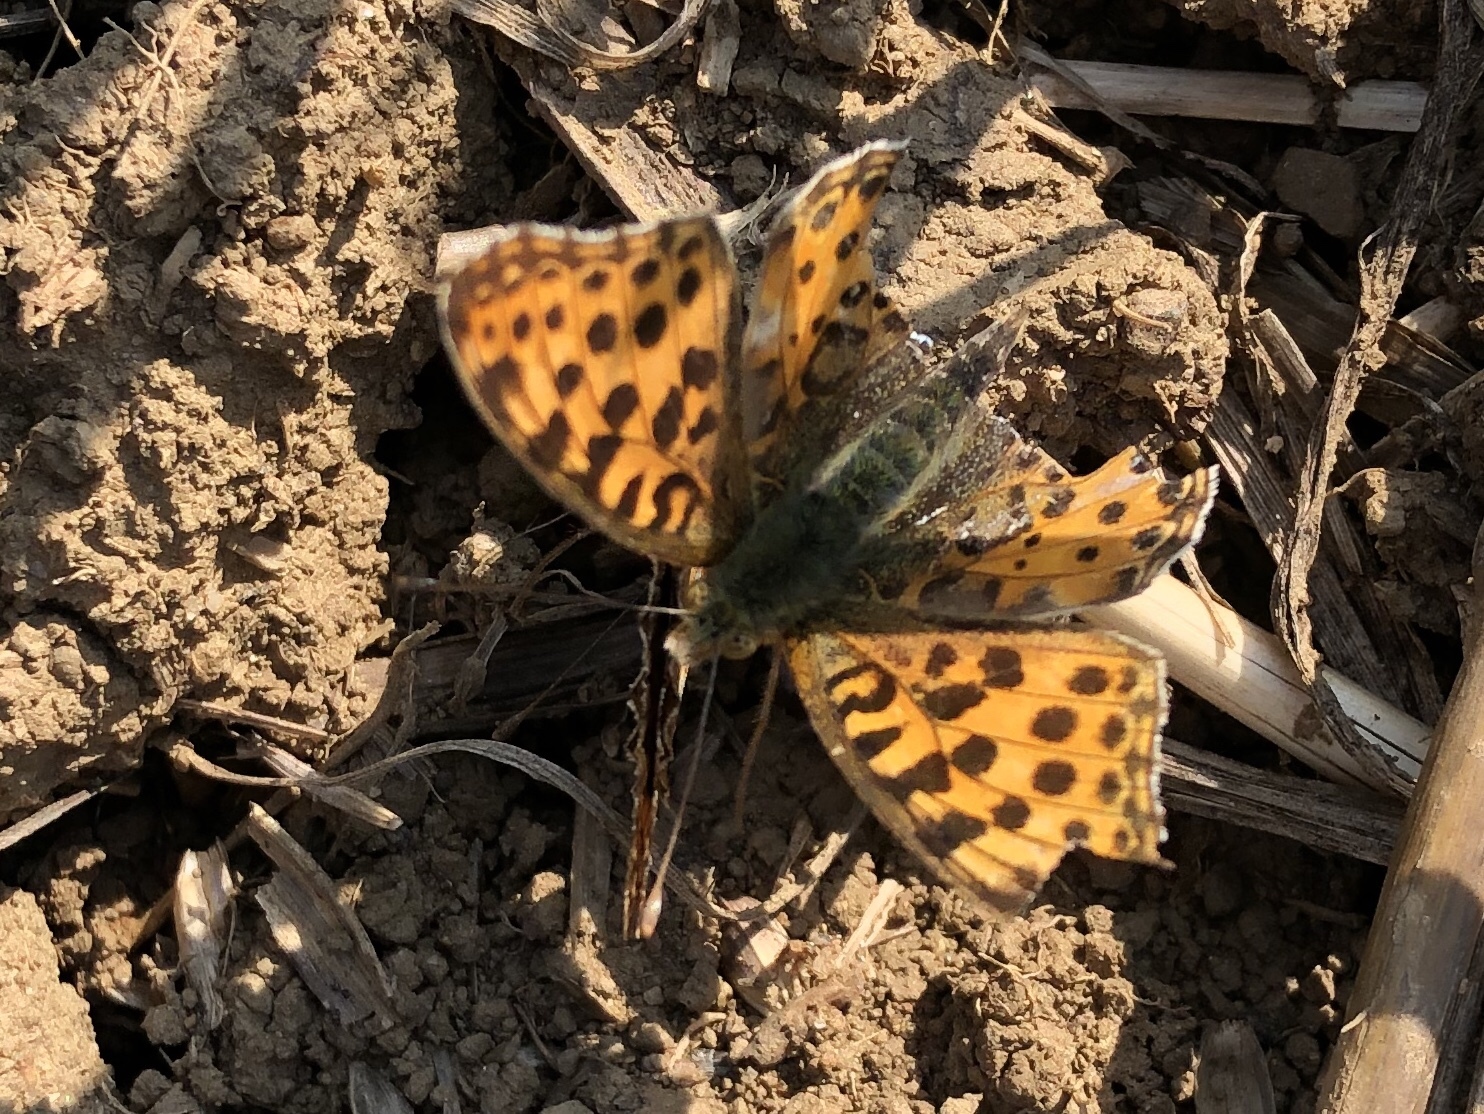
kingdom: Animalia
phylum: Arthropoda
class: Insecta
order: Lepidoptera
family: Nymphalidae
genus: Issoria
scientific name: Issoria lathonia
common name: Queen of spain fritillary
